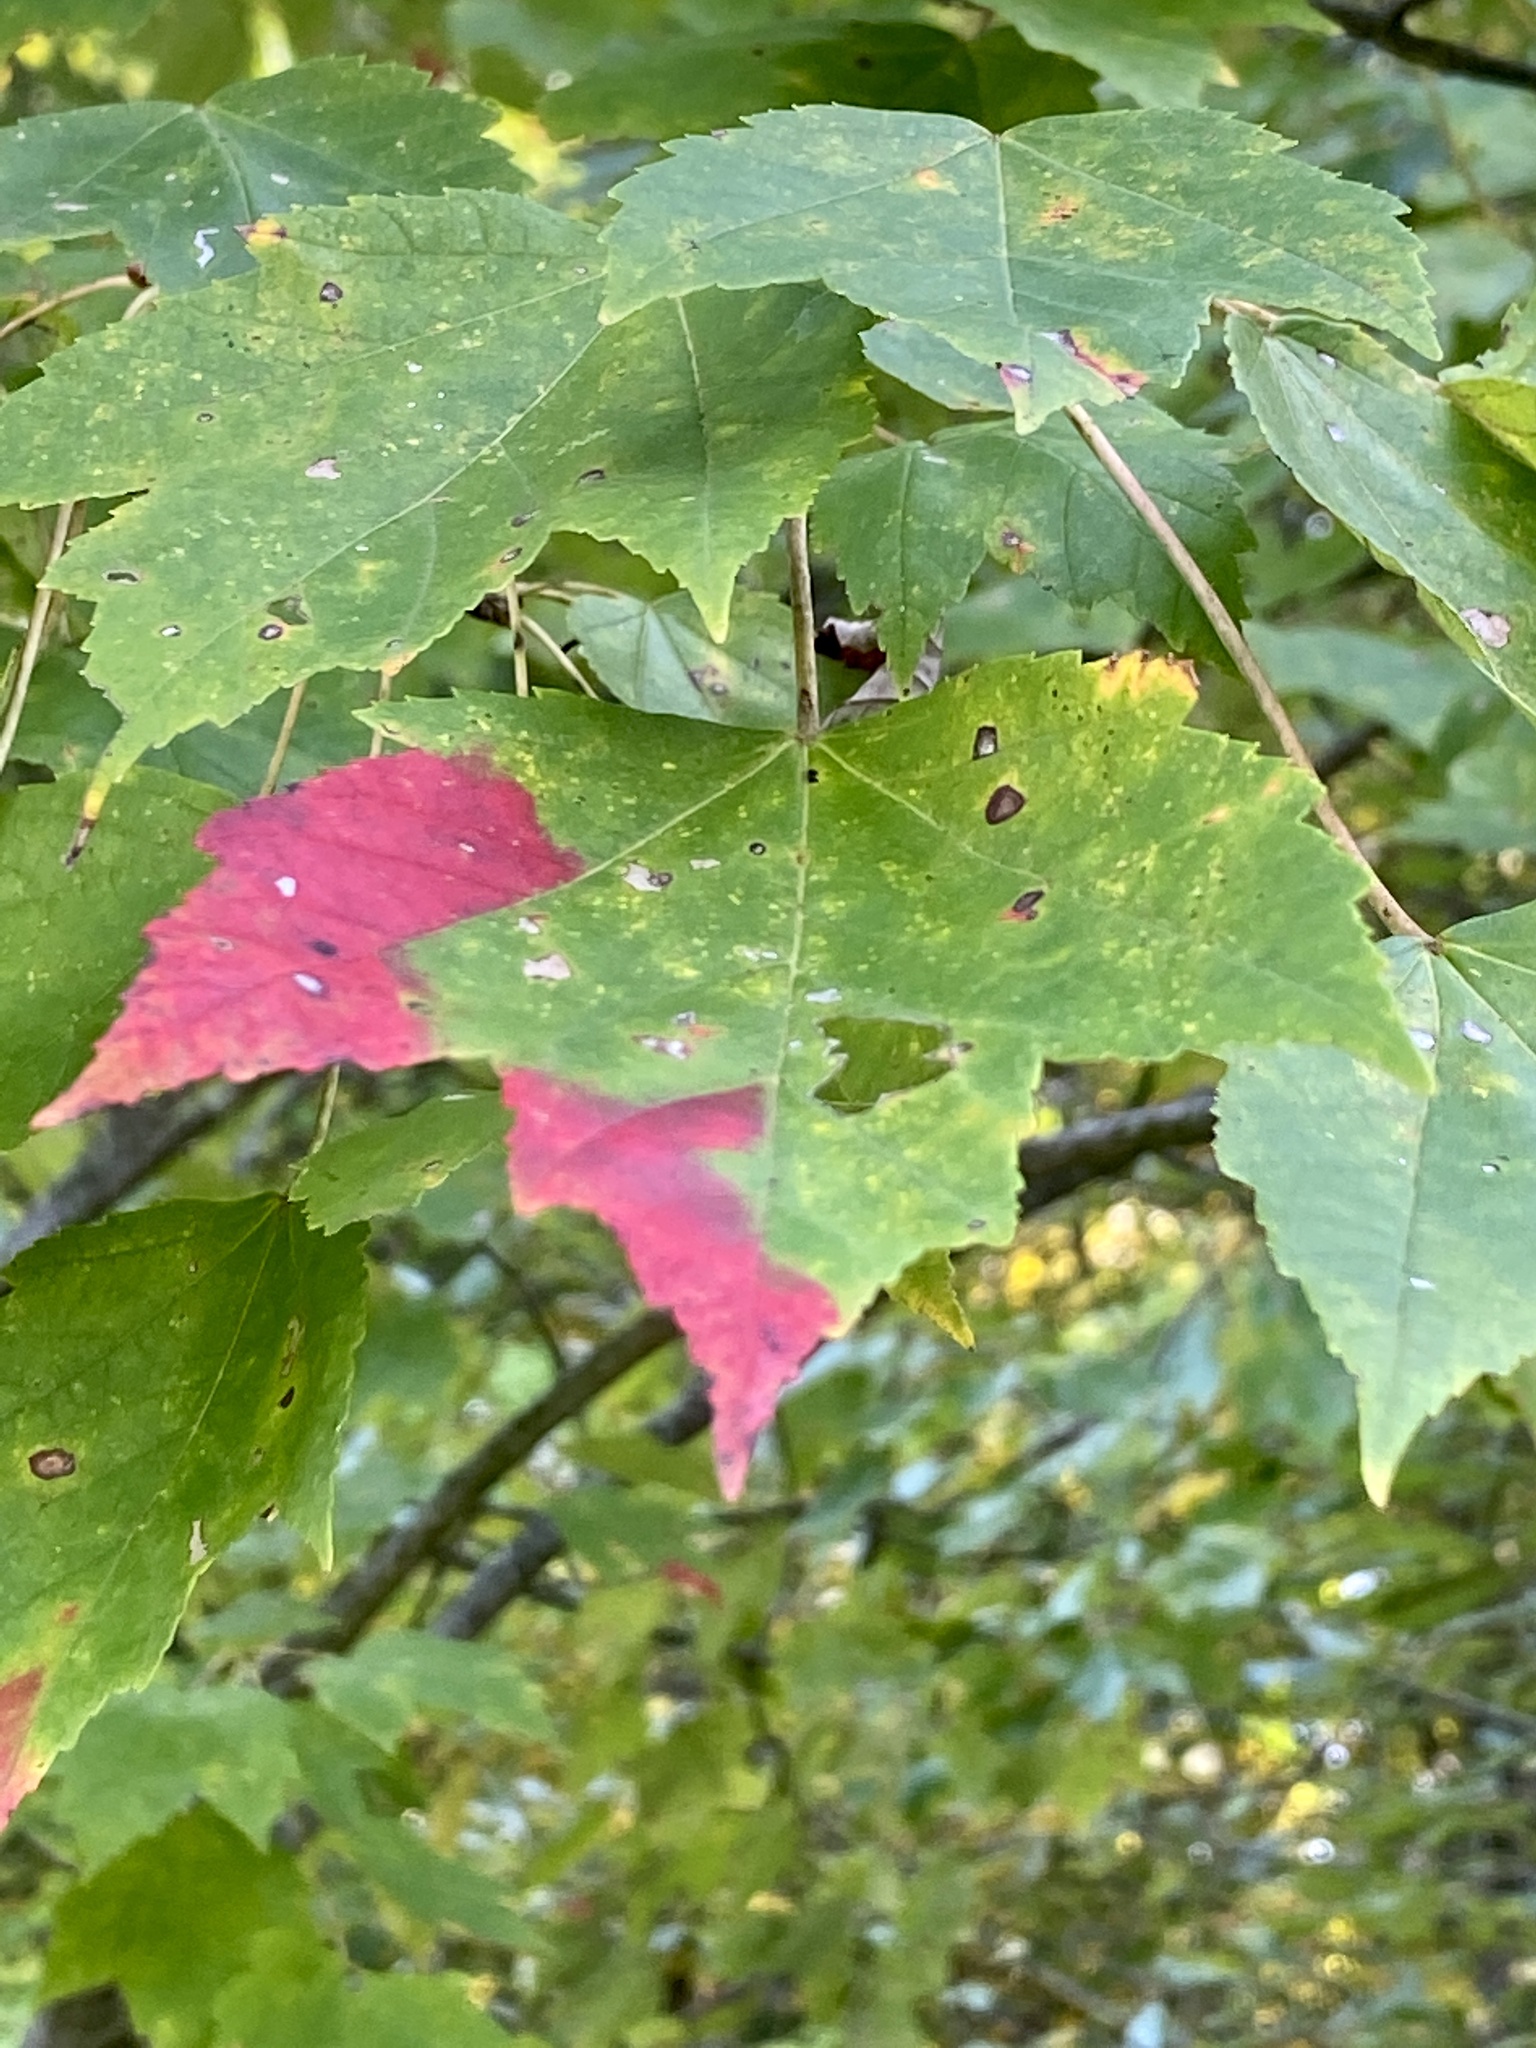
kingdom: Plantae
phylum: Tracheophyta
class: Magnoliopsida
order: Sapindales
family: Sapindaceae
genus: Acer
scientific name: Acer rubrum
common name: Red maple
